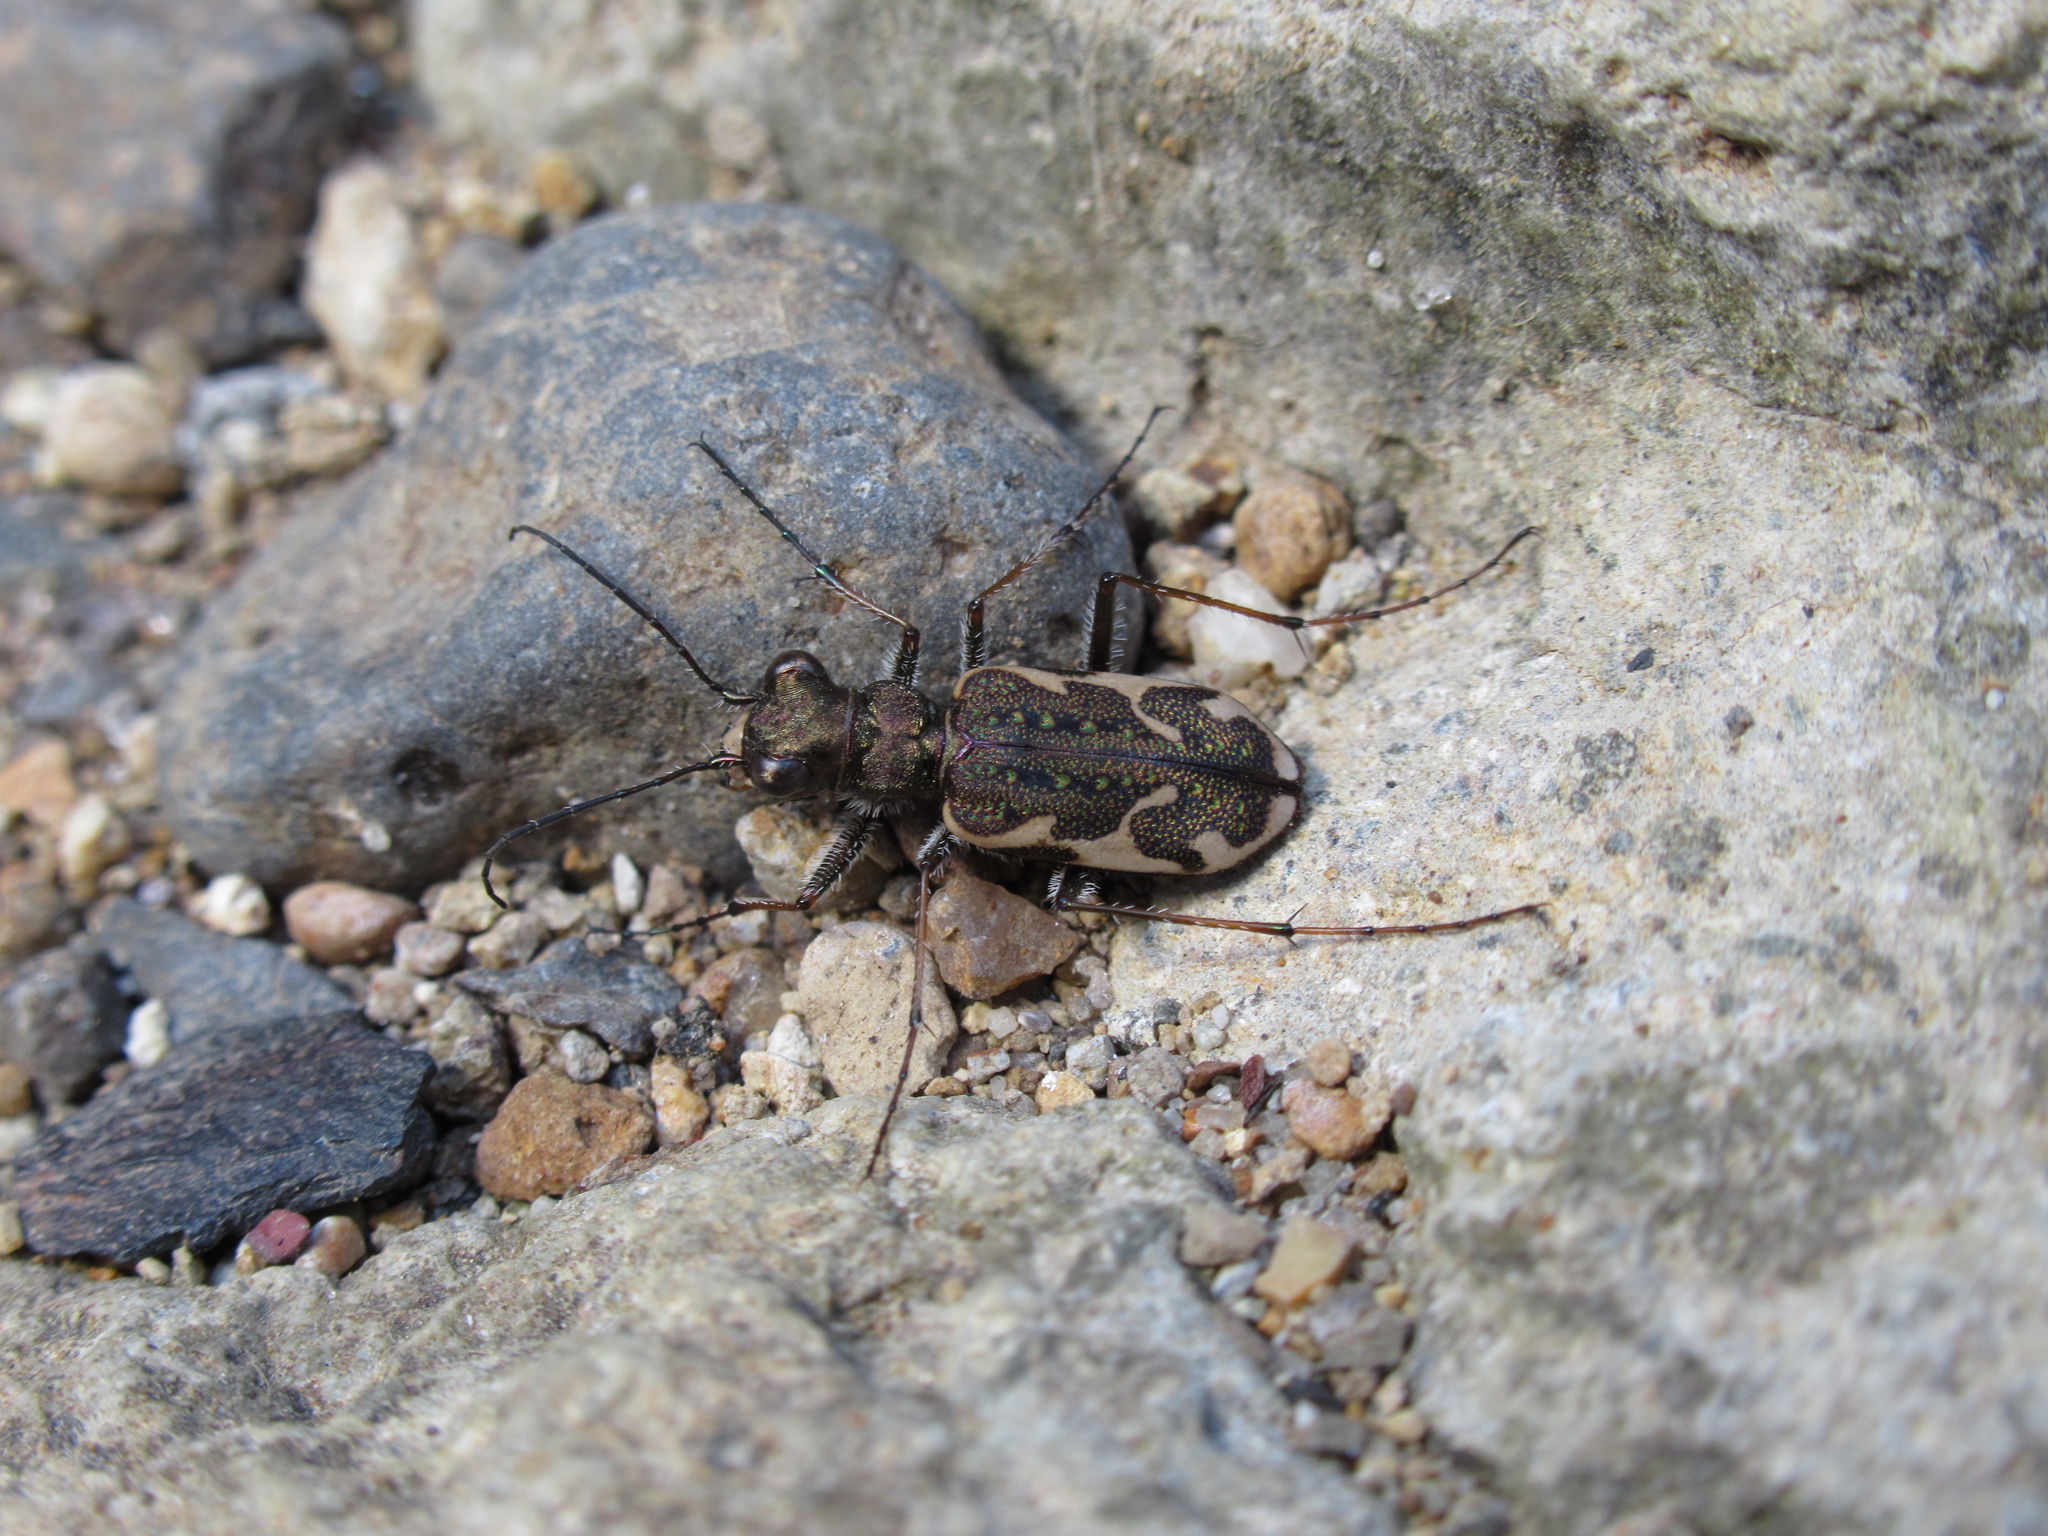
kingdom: Animalia
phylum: Arthropoda
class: Insecta
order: Coleoptera
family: Carabidae
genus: Neocicindela
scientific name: Neocicindela tuberculata
